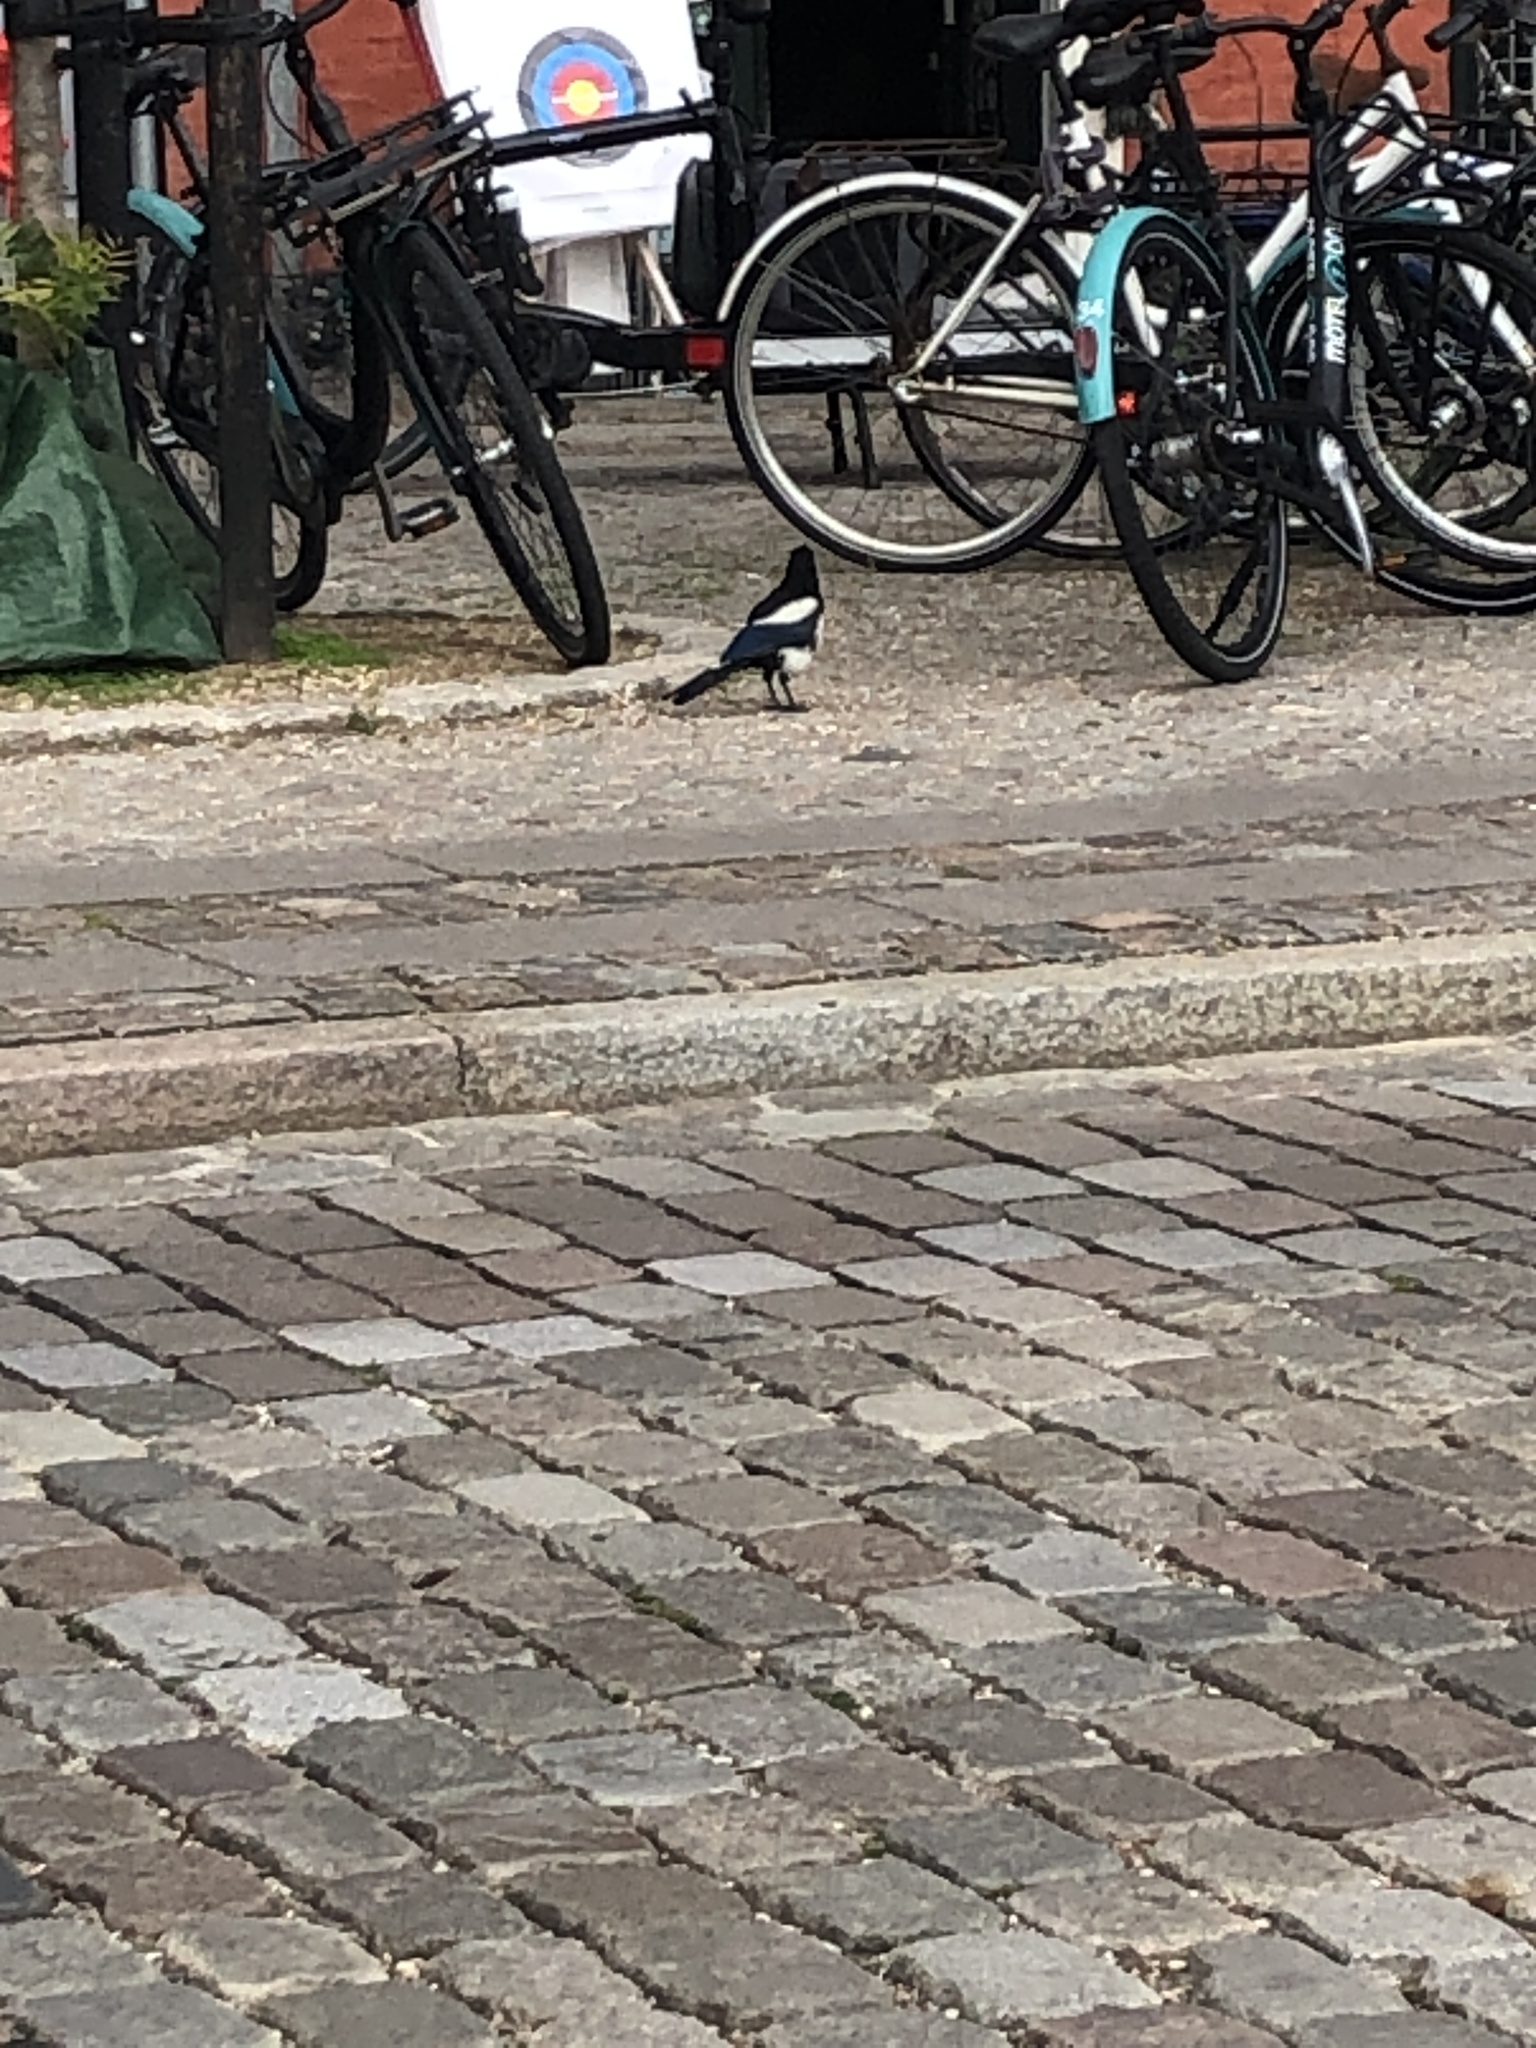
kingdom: Animalia
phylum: Chordata
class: Aves
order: Passeriformes
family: Corvidae
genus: Pica
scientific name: Pica pica
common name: Eurasian magpie
